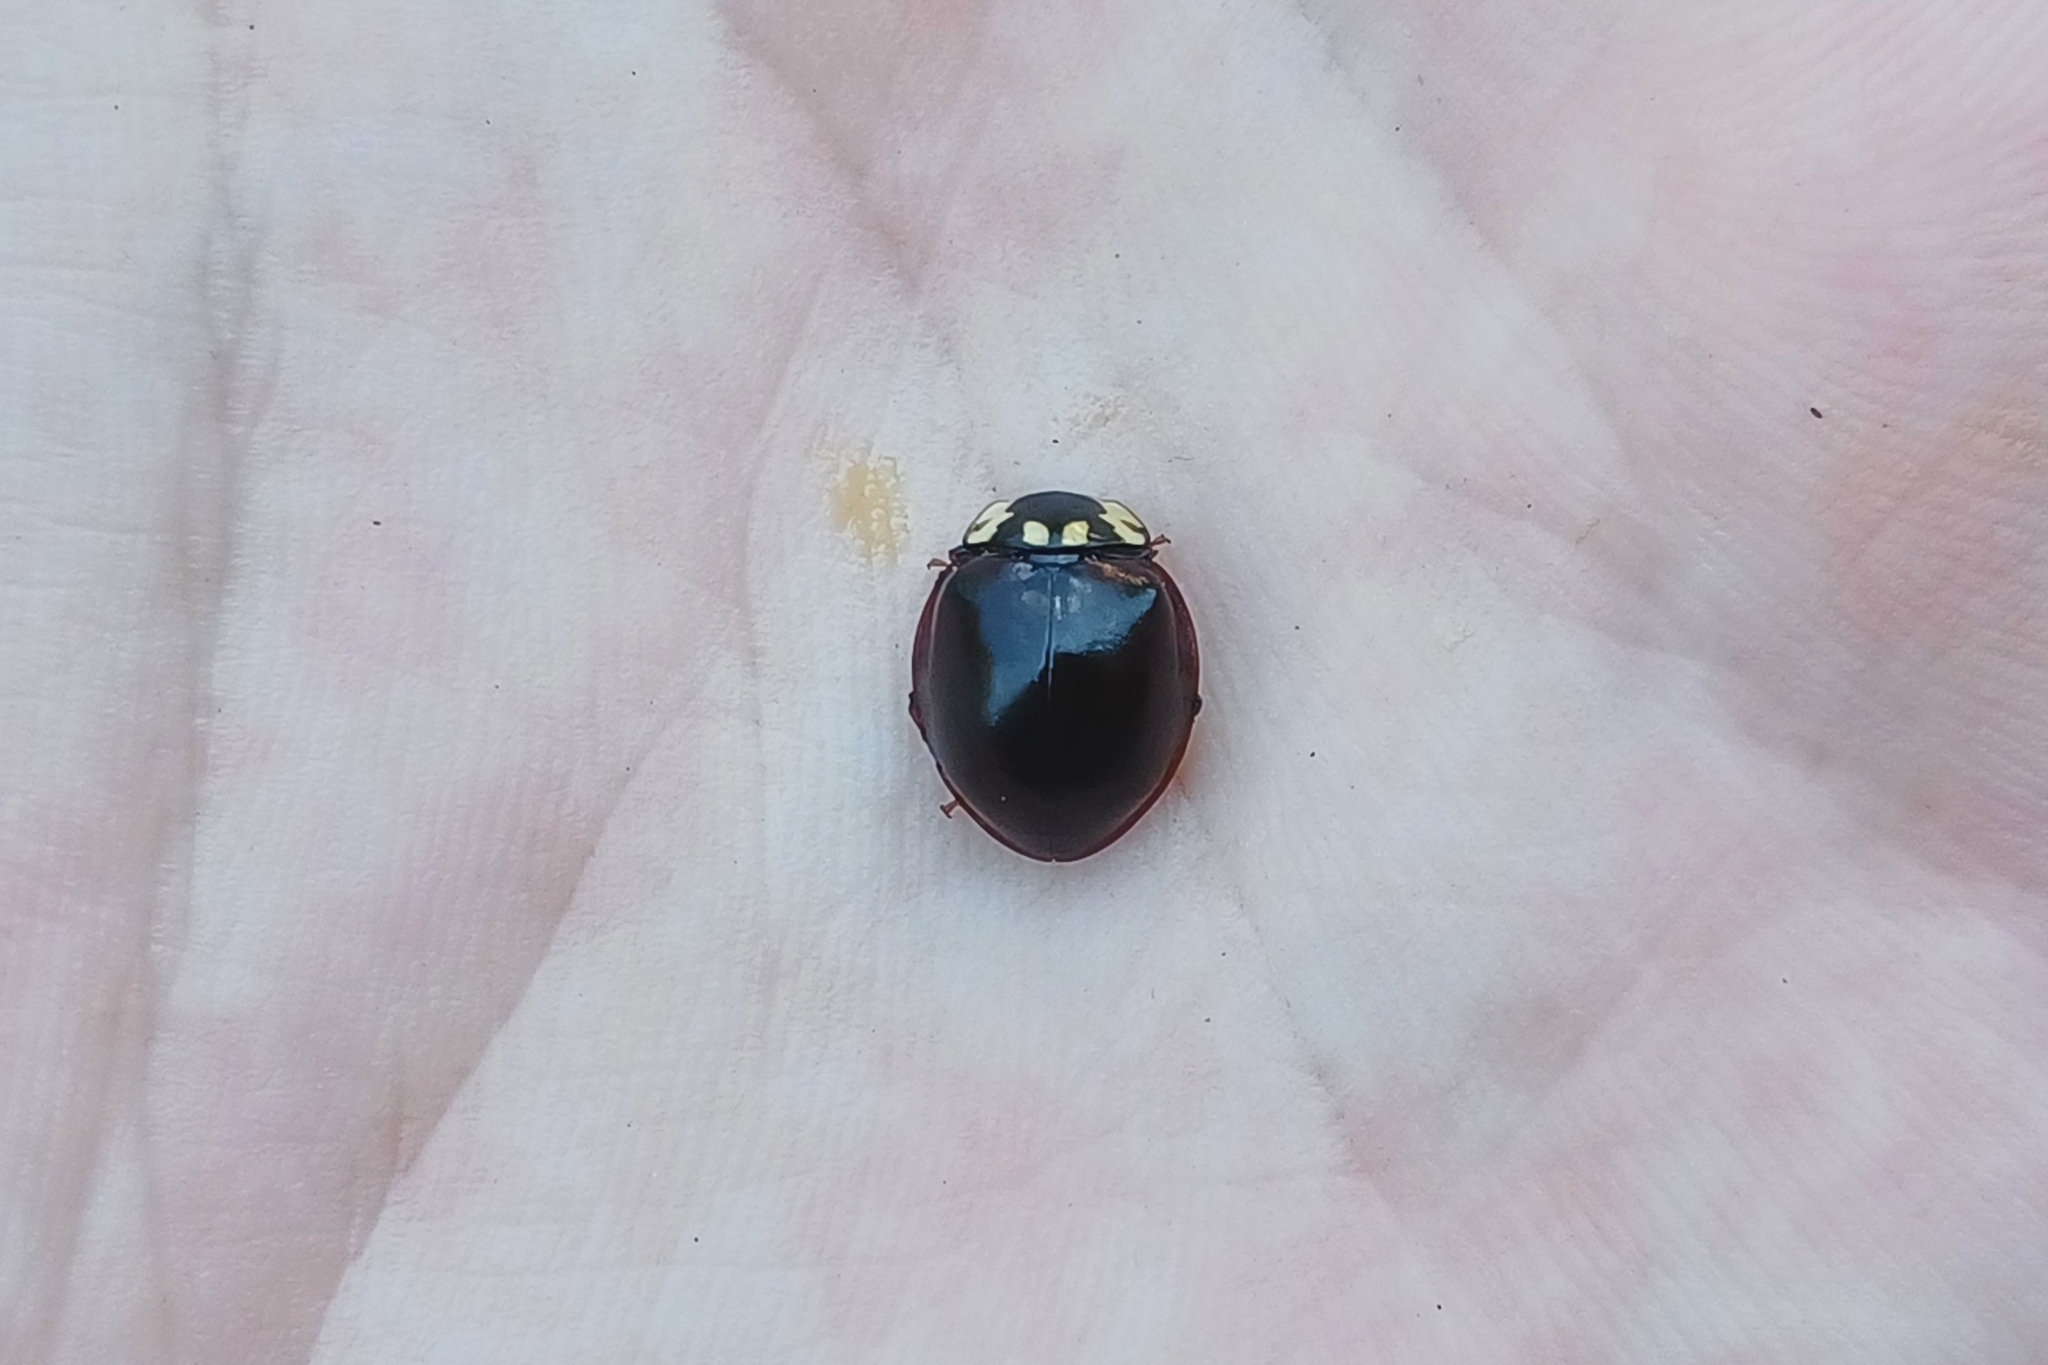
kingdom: Animalia
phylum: Arthropoda
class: Insecta
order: Coleoptera
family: Coccinellidae
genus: Anatis
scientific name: Anatis labiculata
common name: Fifteen-spotted lady beetle
